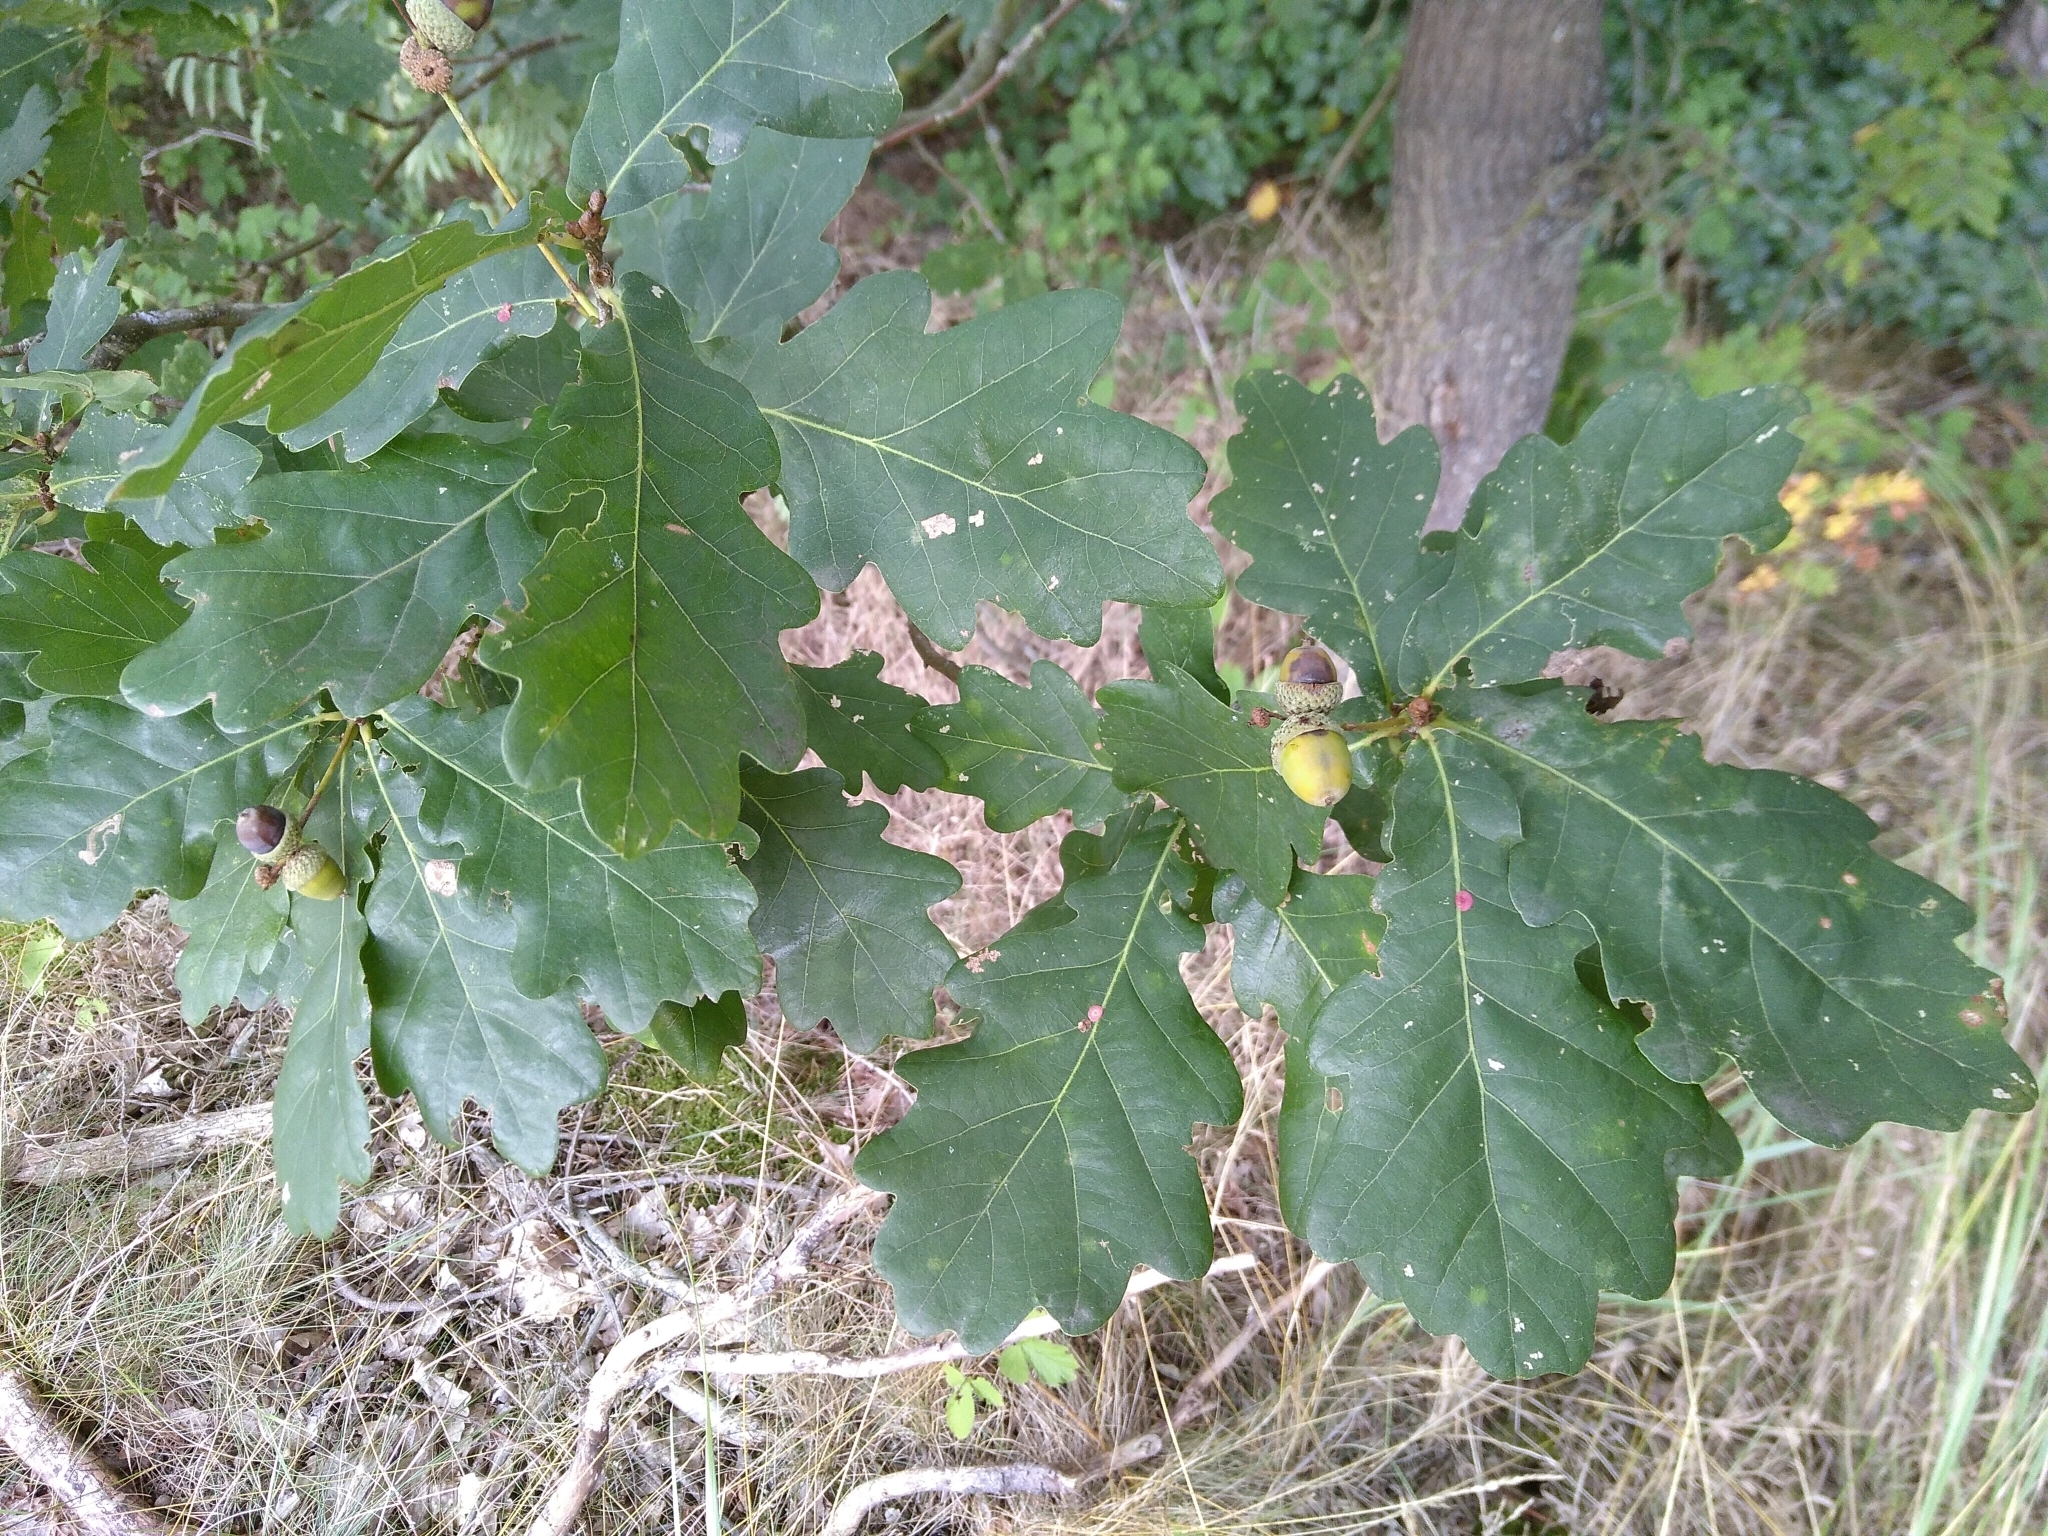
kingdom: Plantae
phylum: Tracheophyta
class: Magnoliopsida
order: Fagales
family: Fagaceae
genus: Quercus
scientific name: Quercus robur
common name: Pedunculate oak
